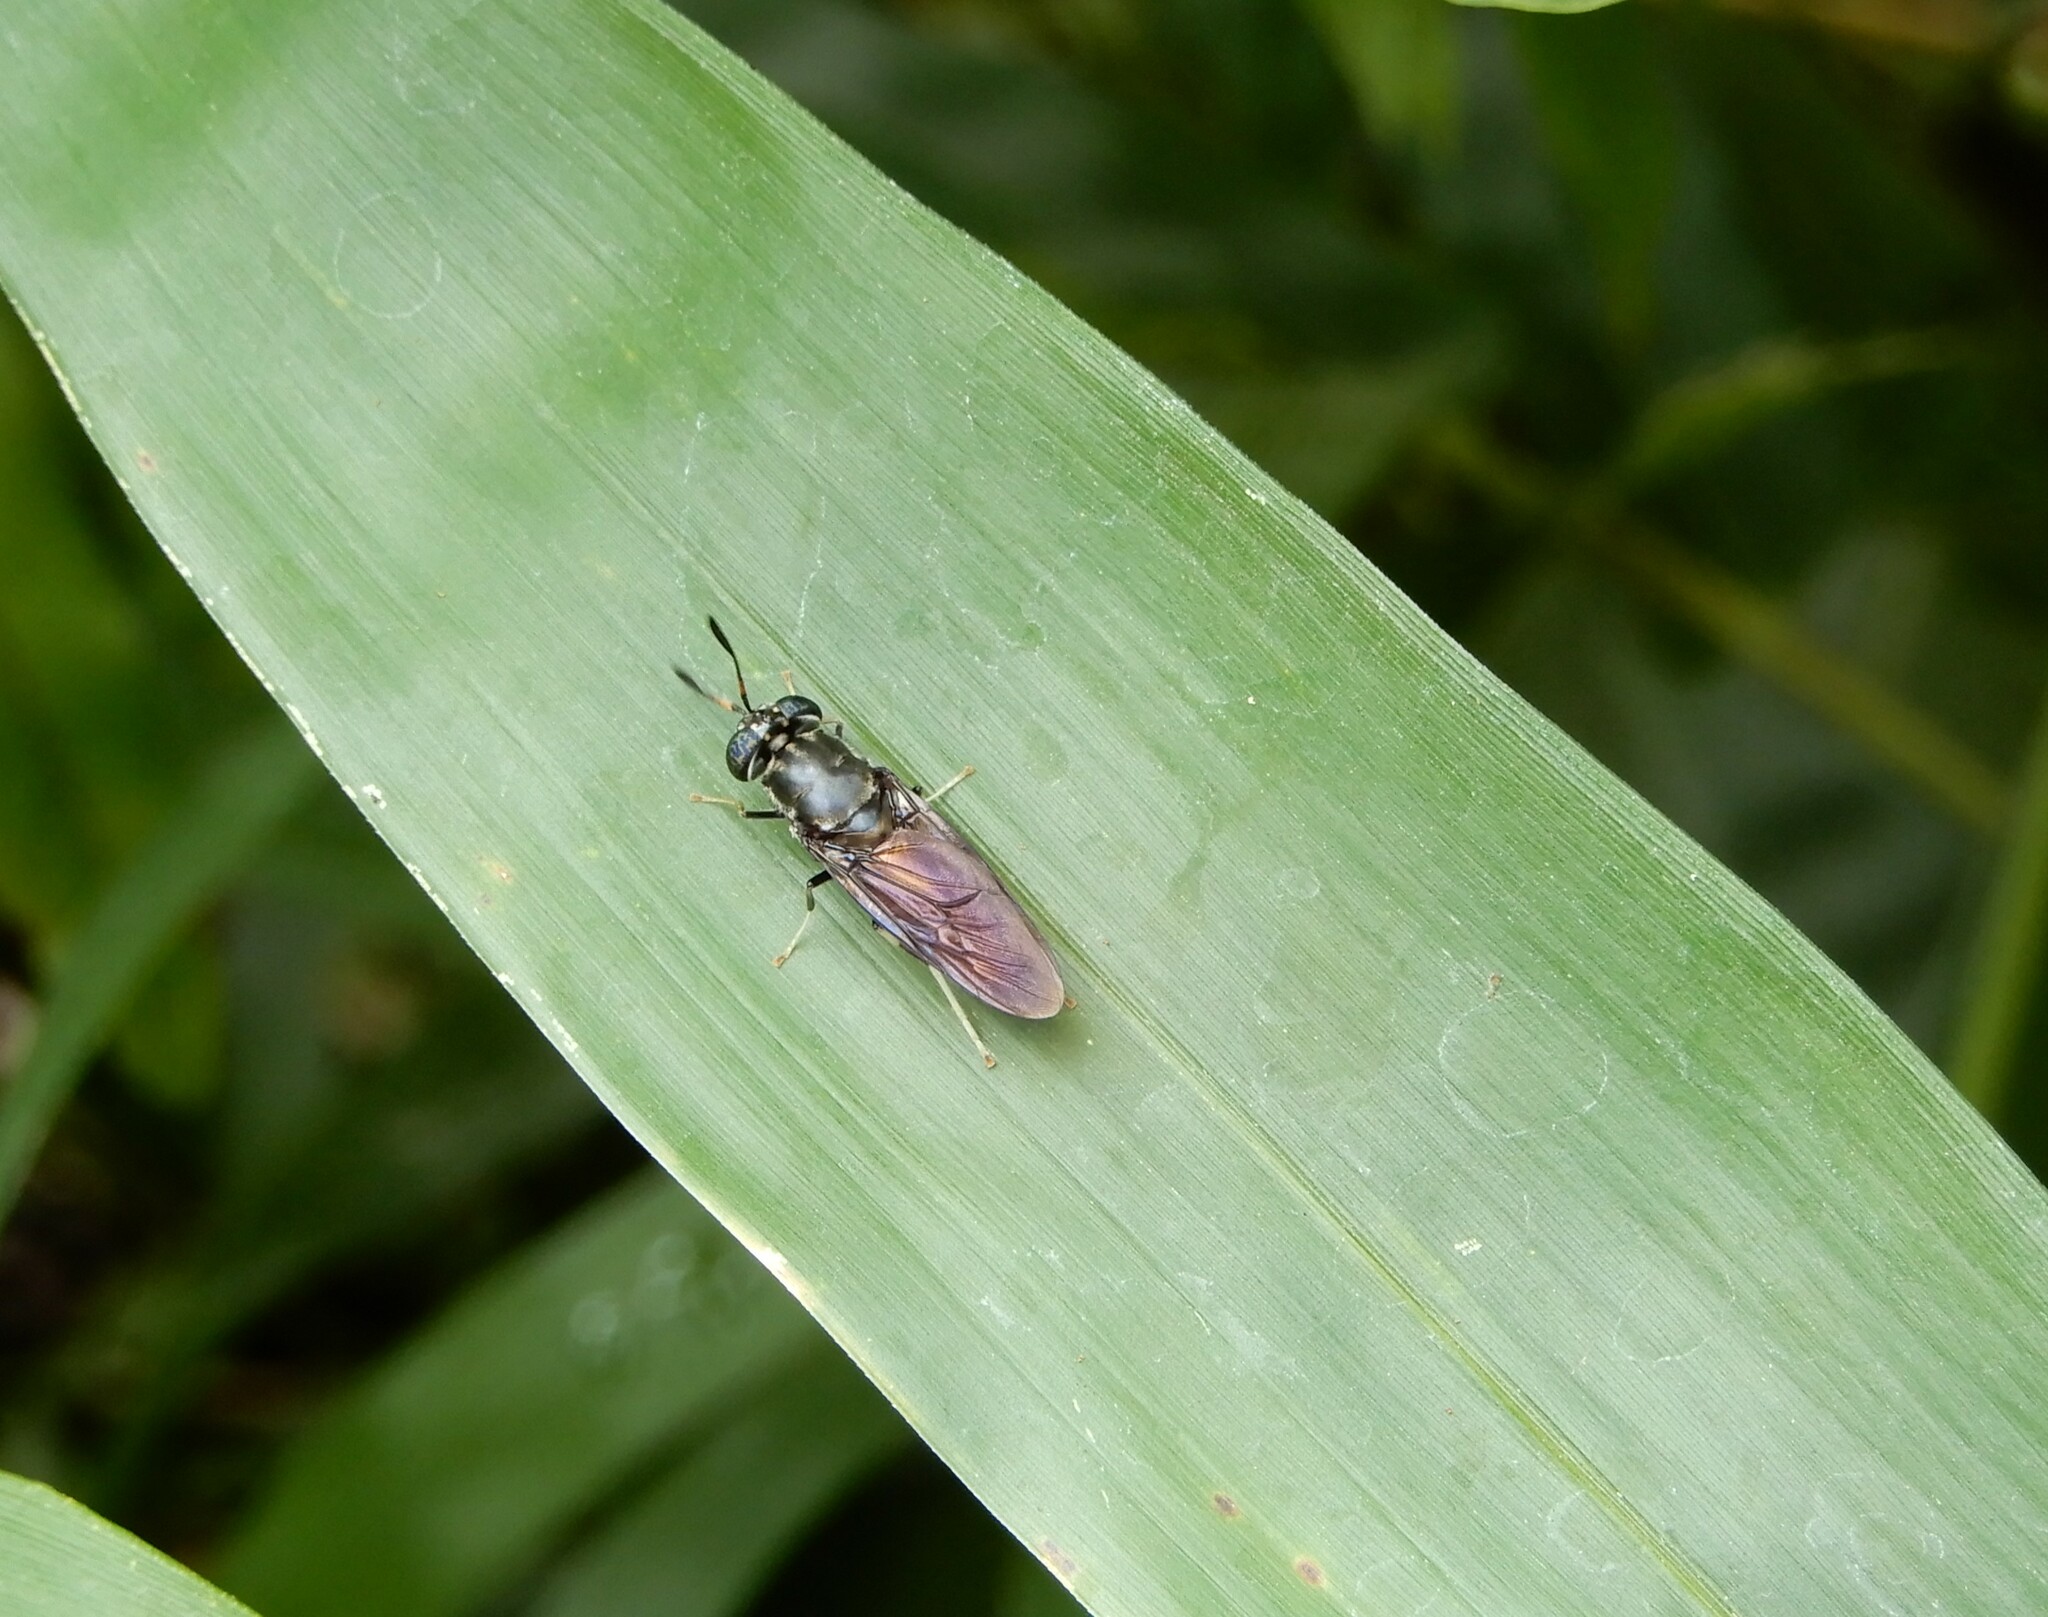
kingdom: Animalia
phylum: Arthropoda
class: Insecta
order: Diptera
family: Stratiomyidae
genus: Hermetia
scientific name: Hermetia illucens
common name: Black soldier fly
